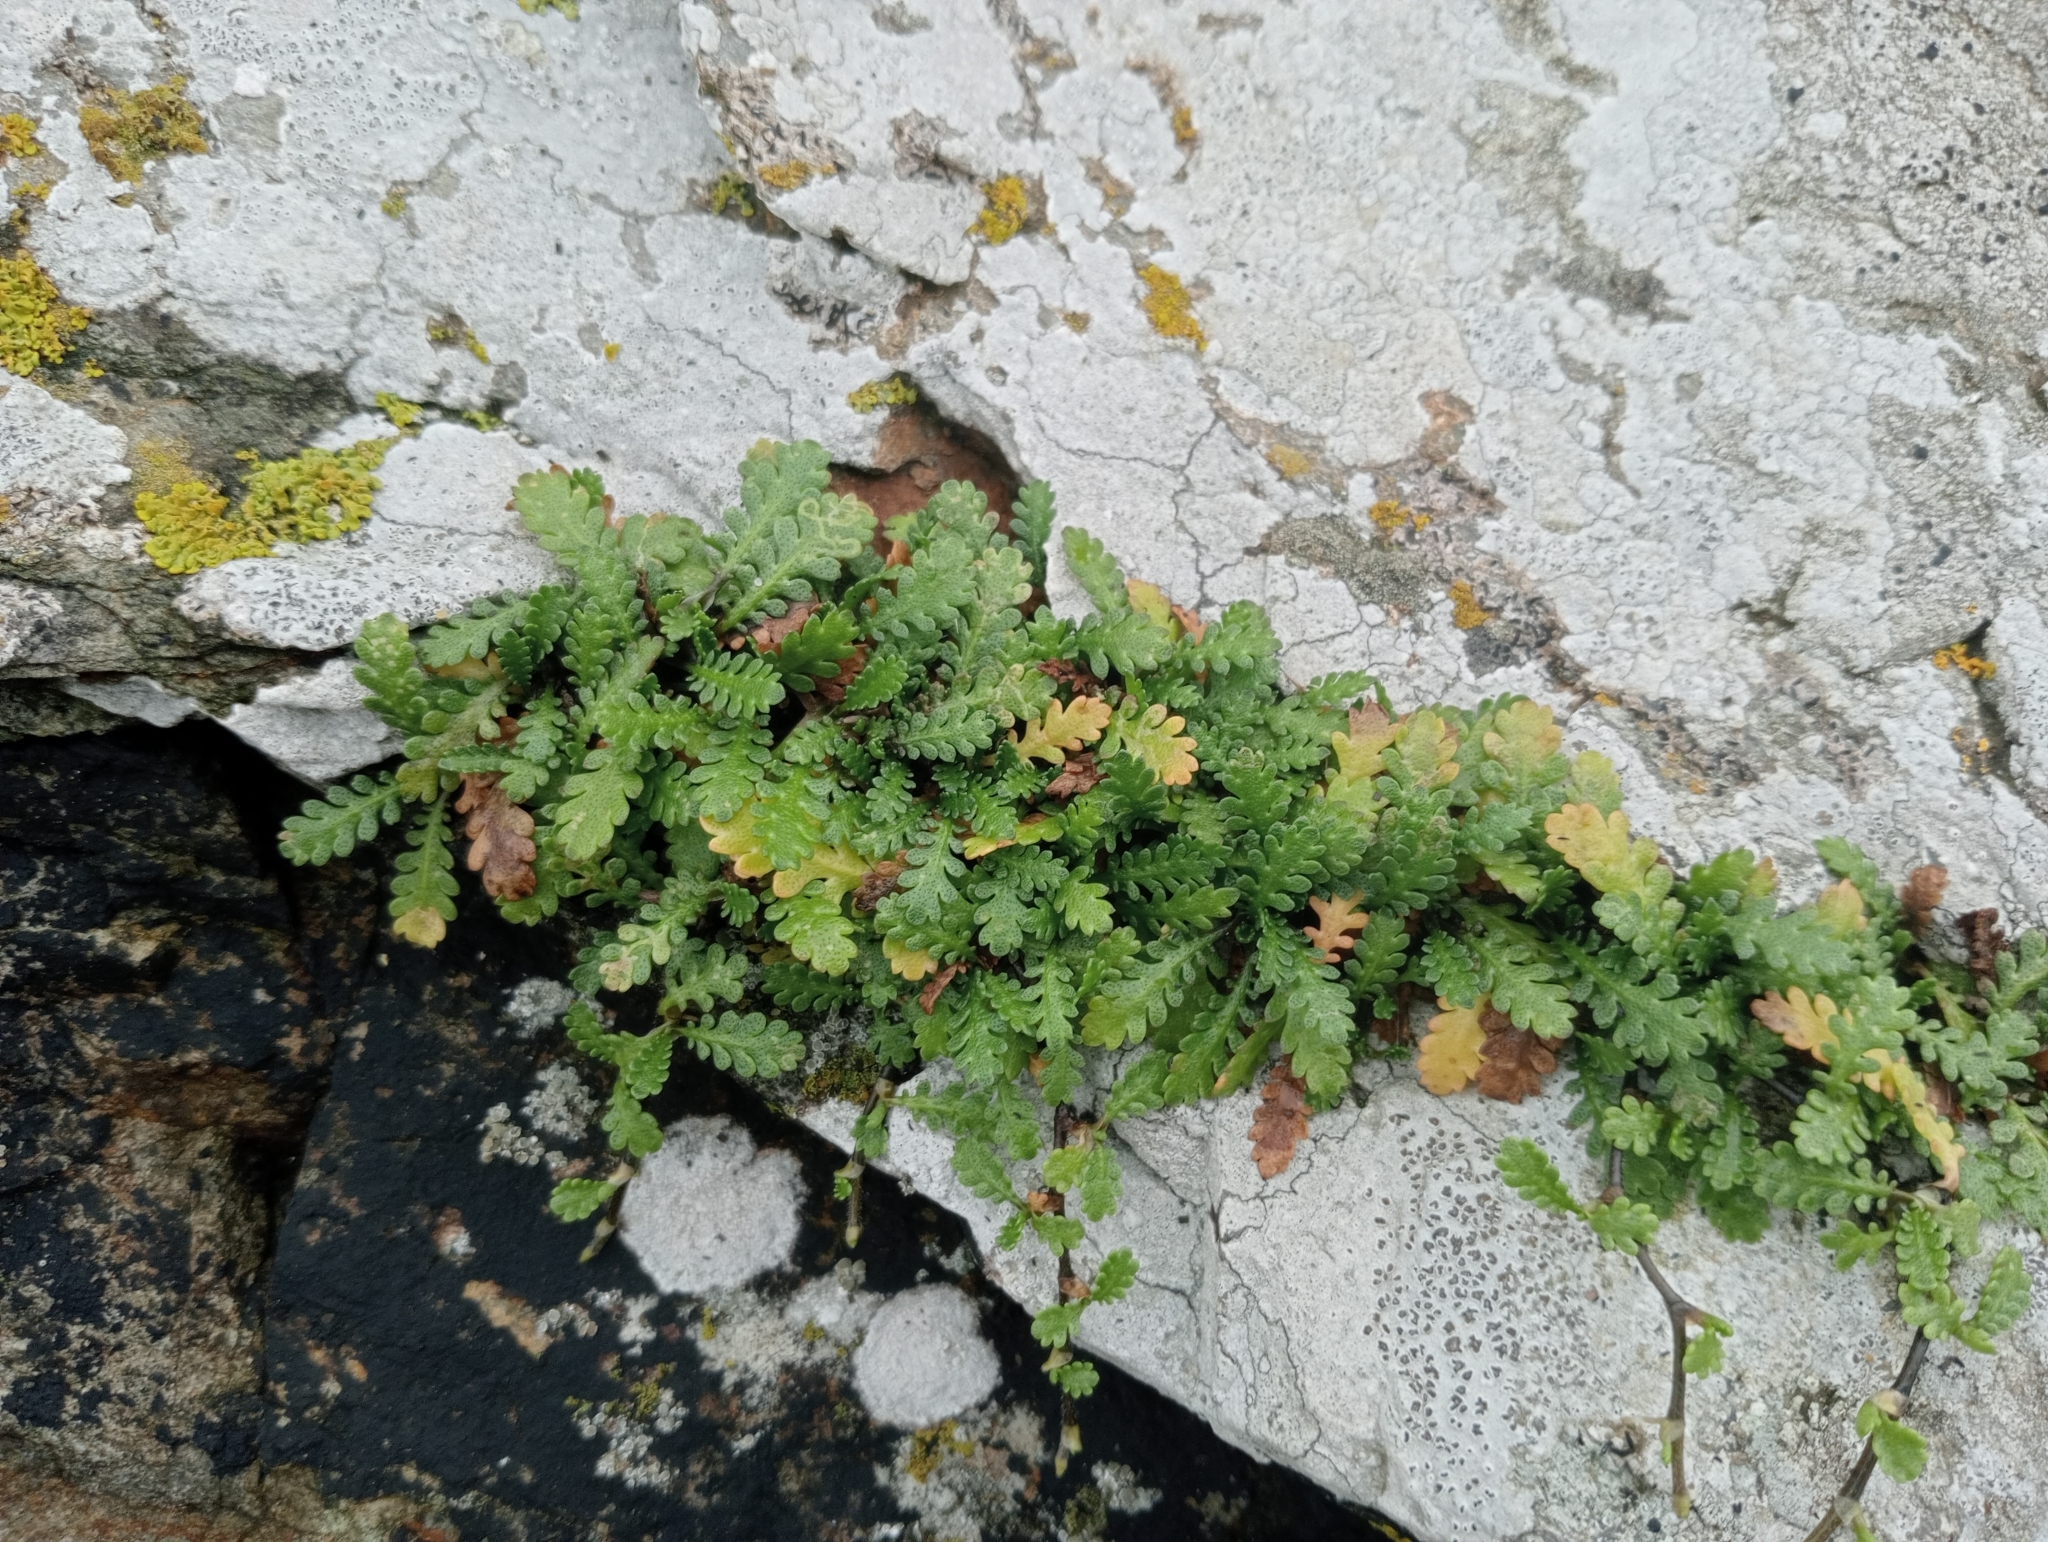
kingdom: Plantae
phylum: Tracheophyta
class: Magnoliopsida
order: Asterales
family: Asteraceae
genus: Leptinella
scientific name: Leptinella dioica
